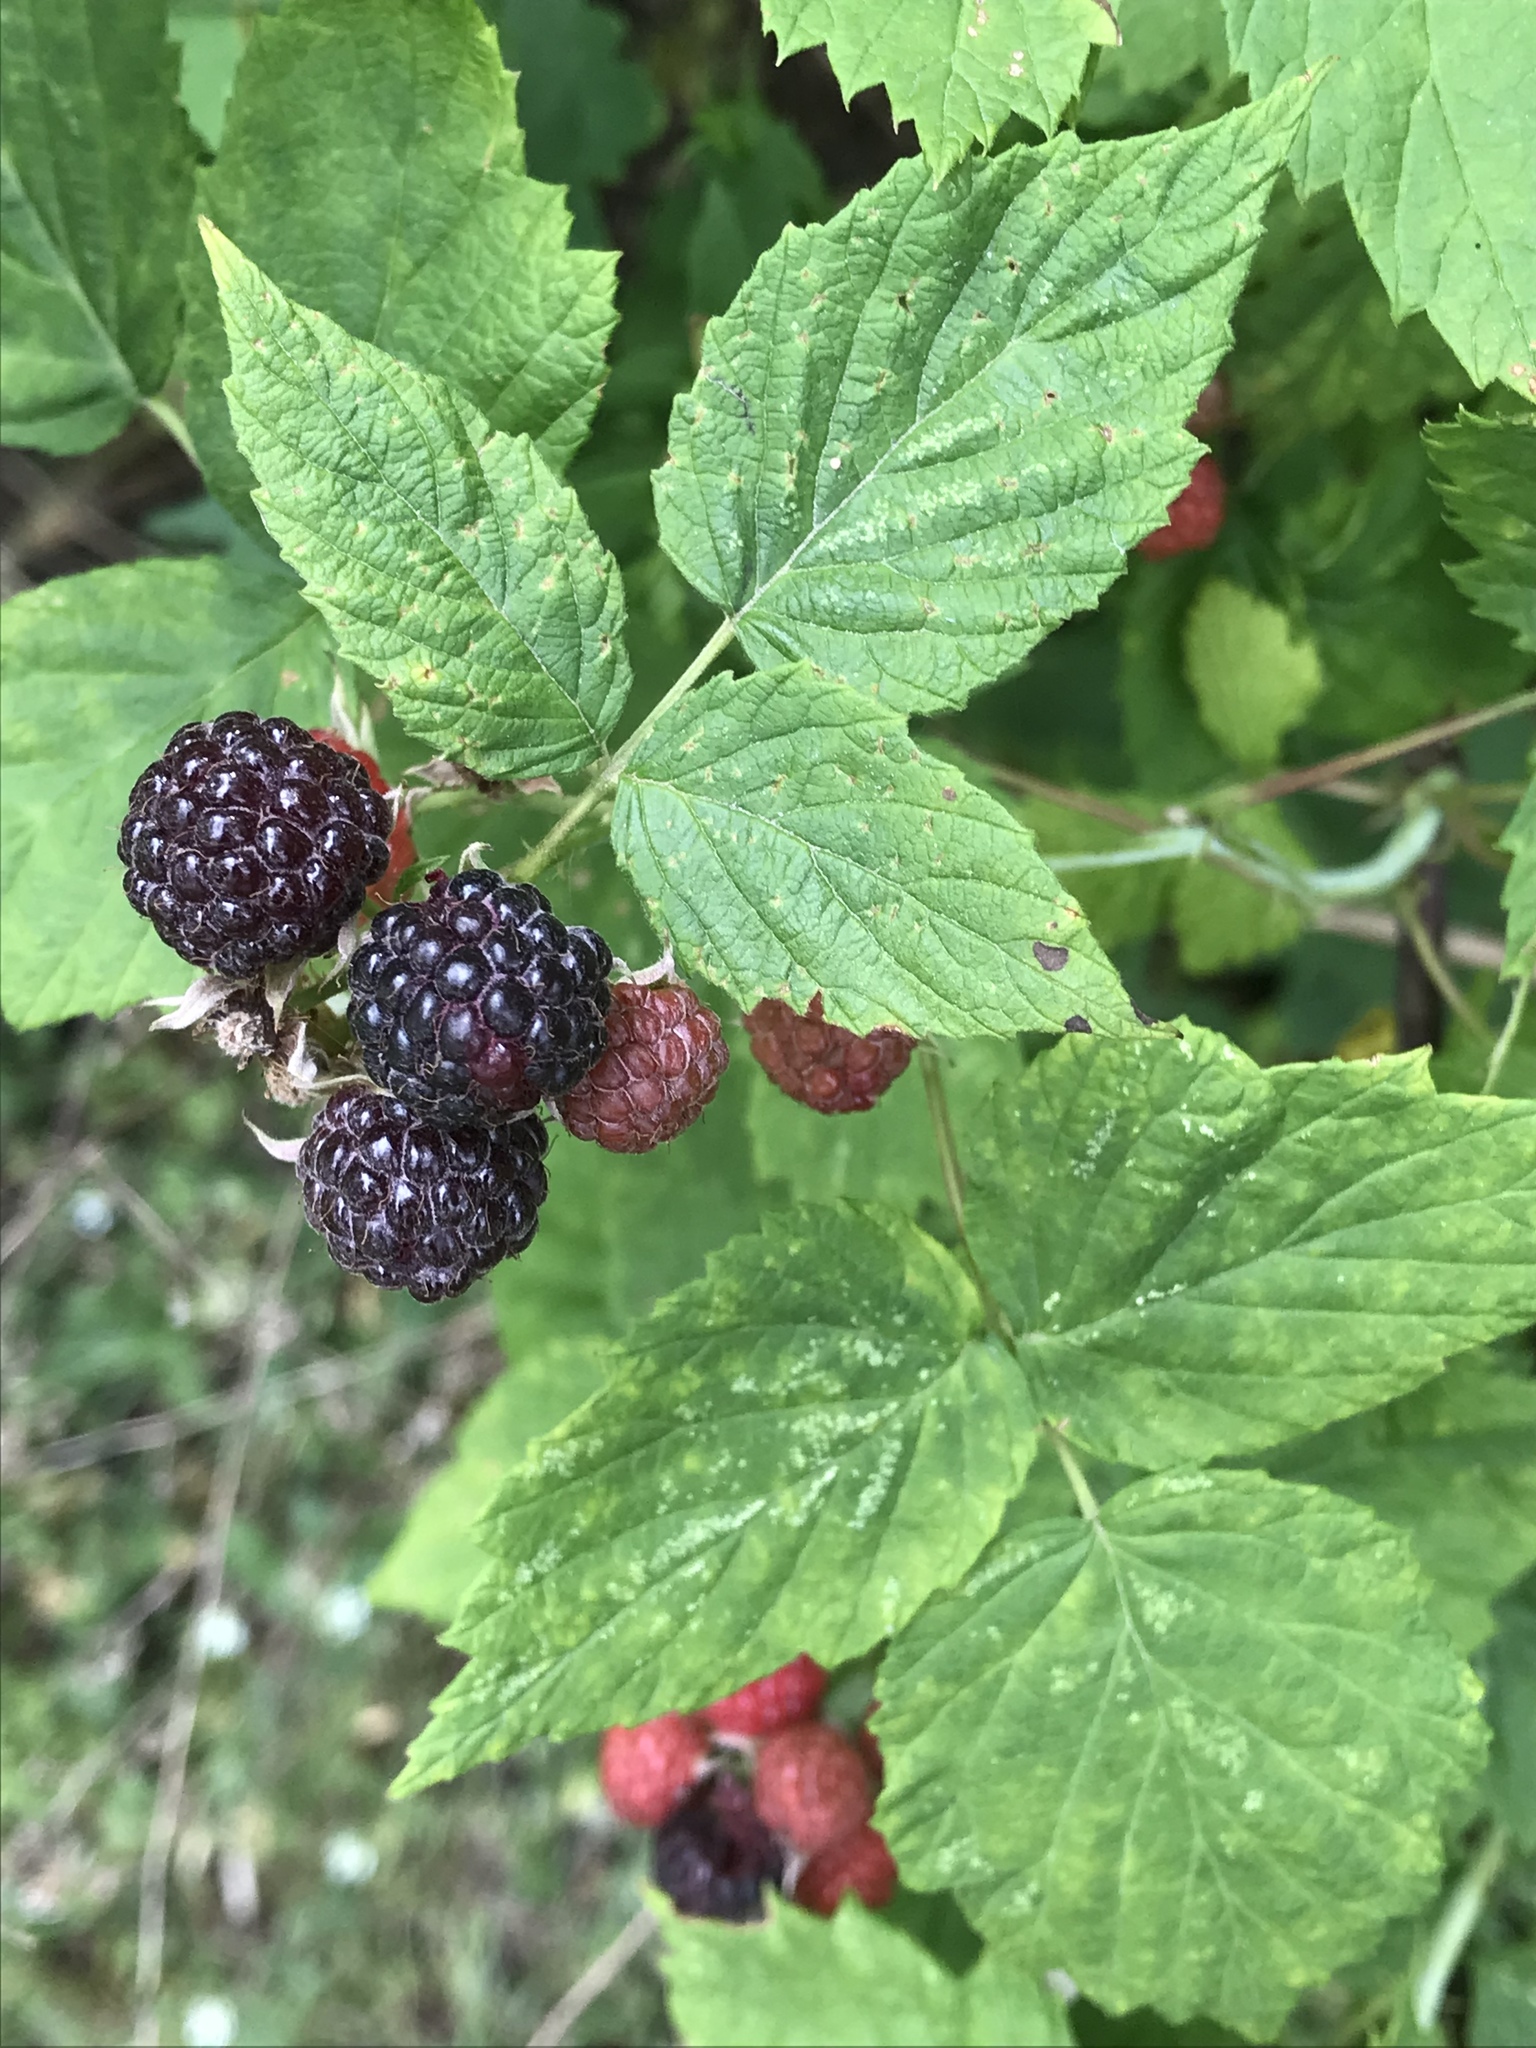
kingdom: Plantae
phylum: Tracheophyta
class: Magnoliopsida
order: Rosales
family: Rosaceae
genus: Rubus
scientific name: Rubus occidentalis
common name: Black raspberry
